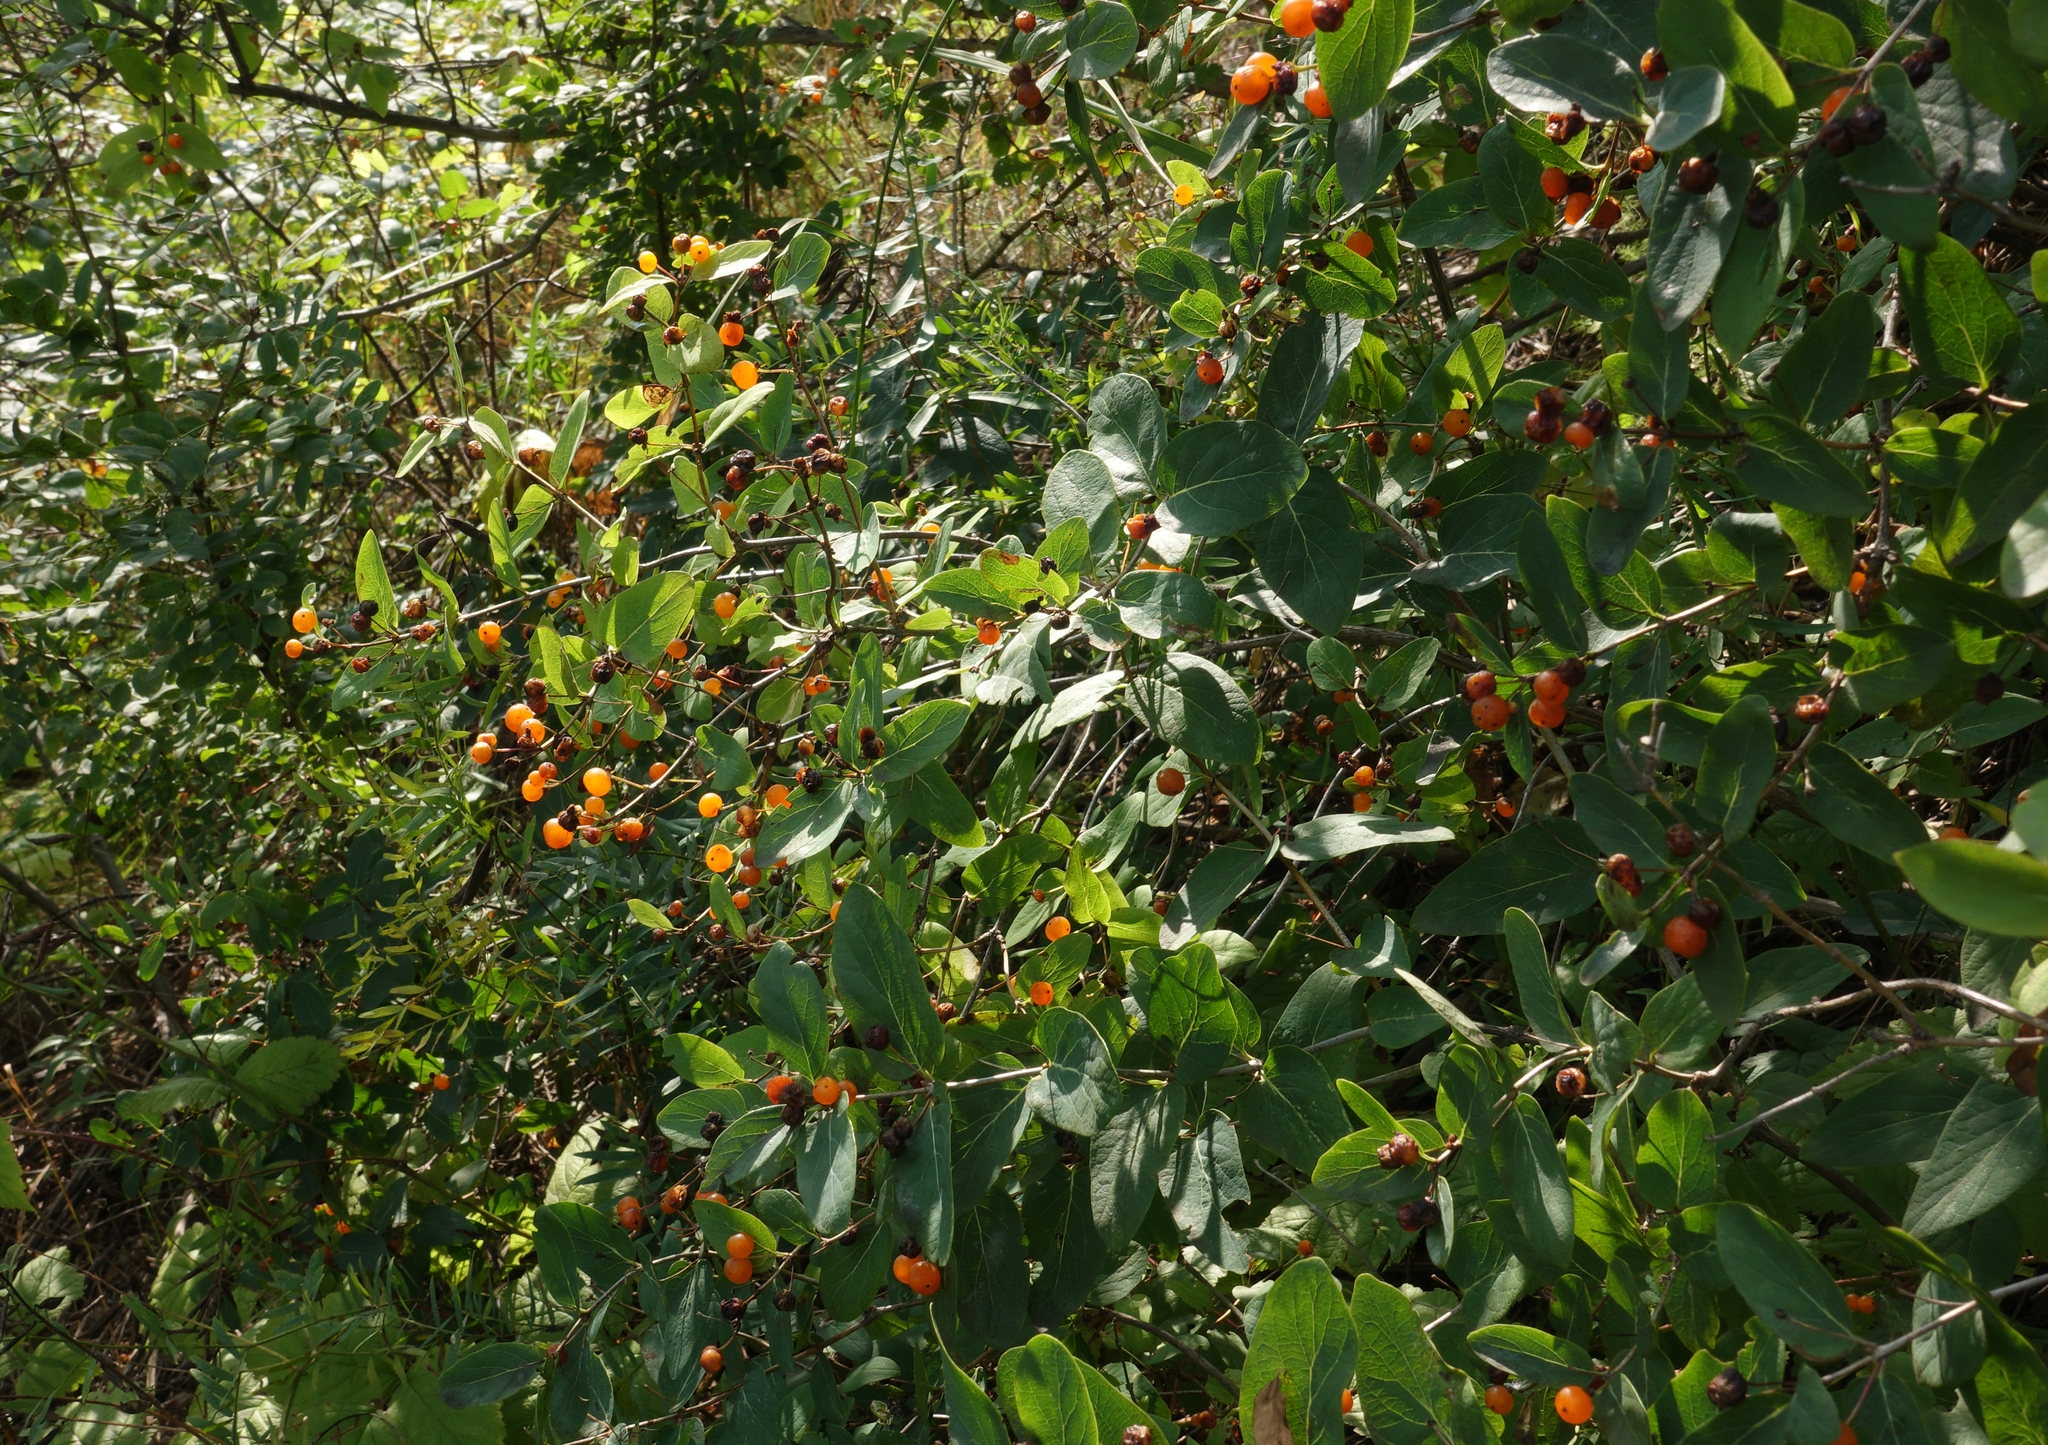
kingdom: Plantae
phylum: Tracheophyta
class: Magnoliopsida
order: Dipsacales
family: Caprifoliaceae
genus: Lonicera
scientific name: Lonicera tatarica
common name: Tatarian honeysuckle
